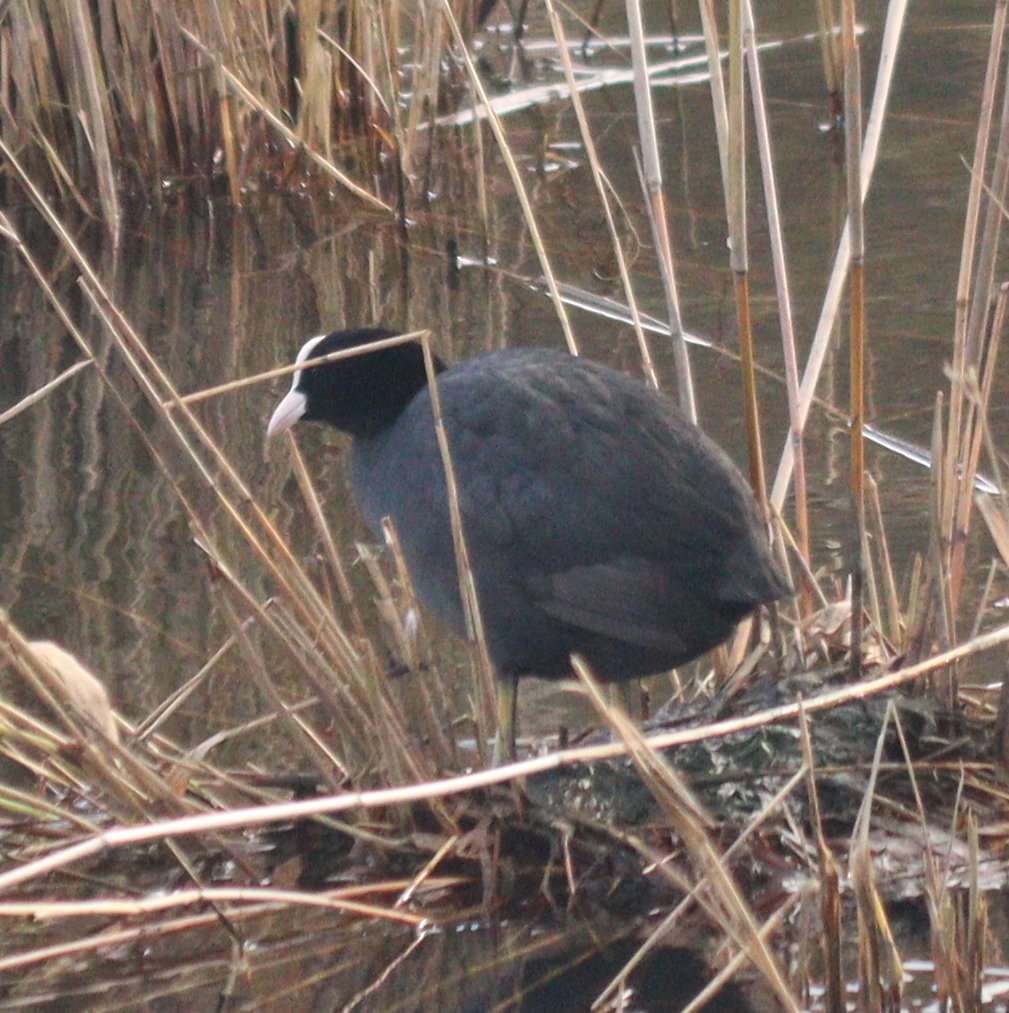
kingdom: Animalia
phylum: Chordata
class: Aves
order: Gruiformes
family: Rallidae
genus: Fulica
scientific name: Fulica atra
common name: Eurasian coot
